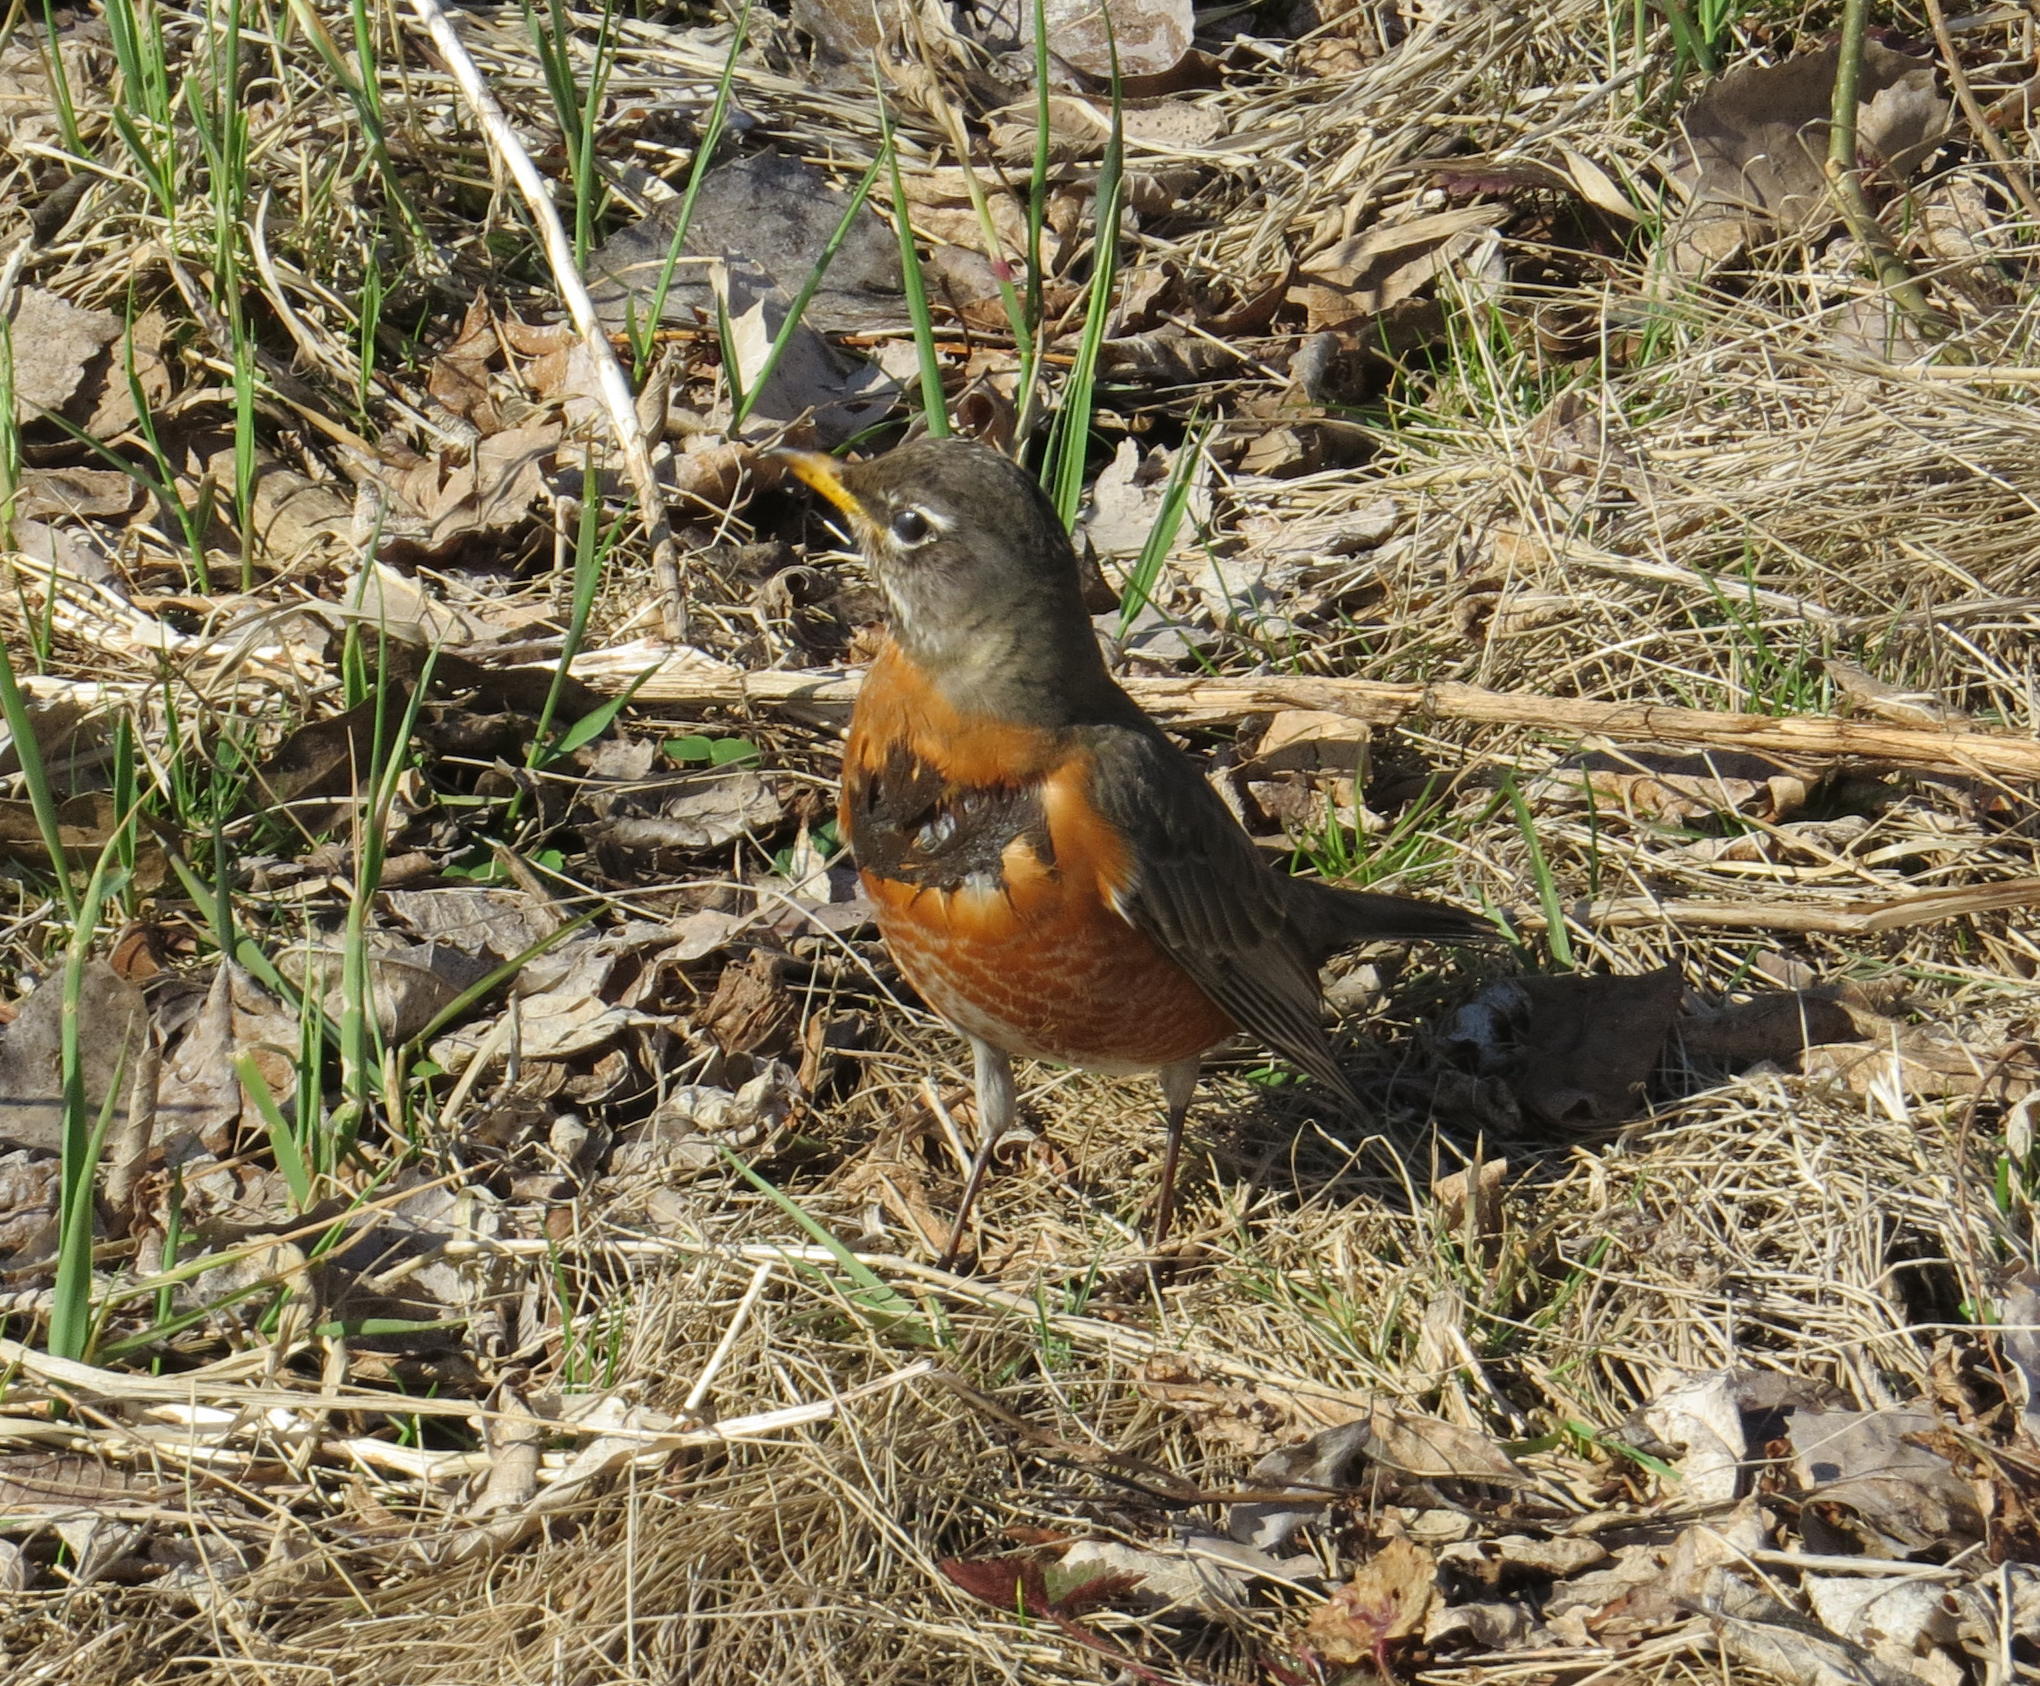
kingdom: Animalia
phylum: Chordata
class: Aves
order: Passeriformes
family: Turdidae
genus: Turdus
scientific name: Turdus migratorius
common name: American robin
